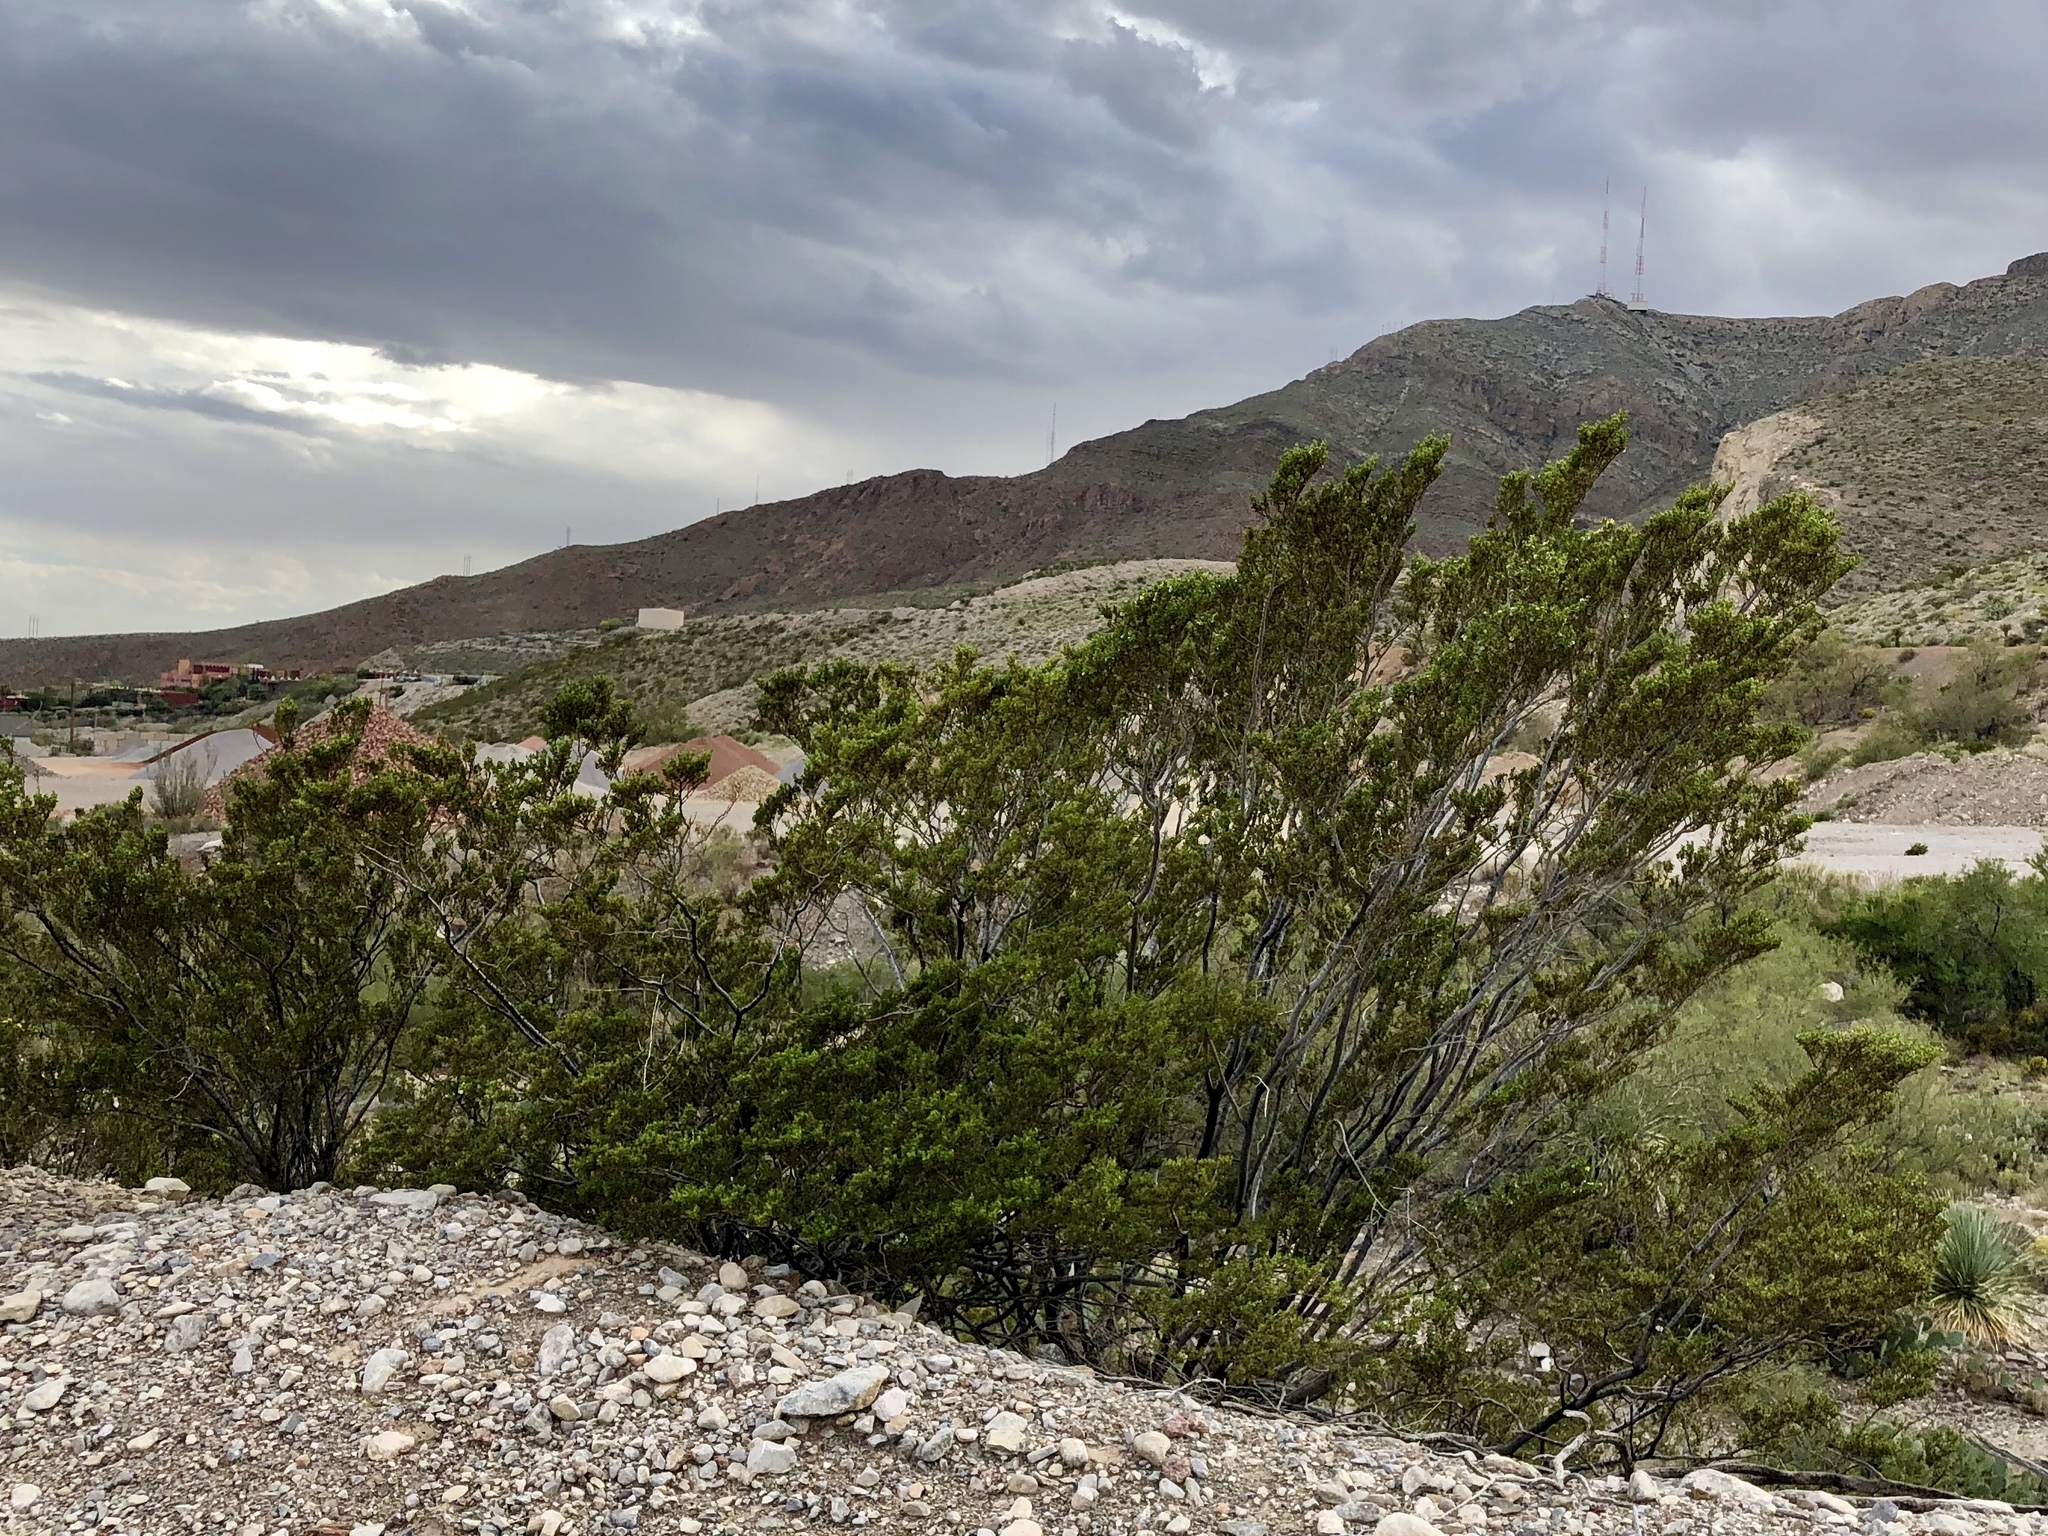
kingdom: Plantae
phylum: Tracheophyta
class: Magnoliopsida
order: Zygophyllales
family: Zygophyllaceae
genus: Larrea
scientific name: Larrea tridentata
